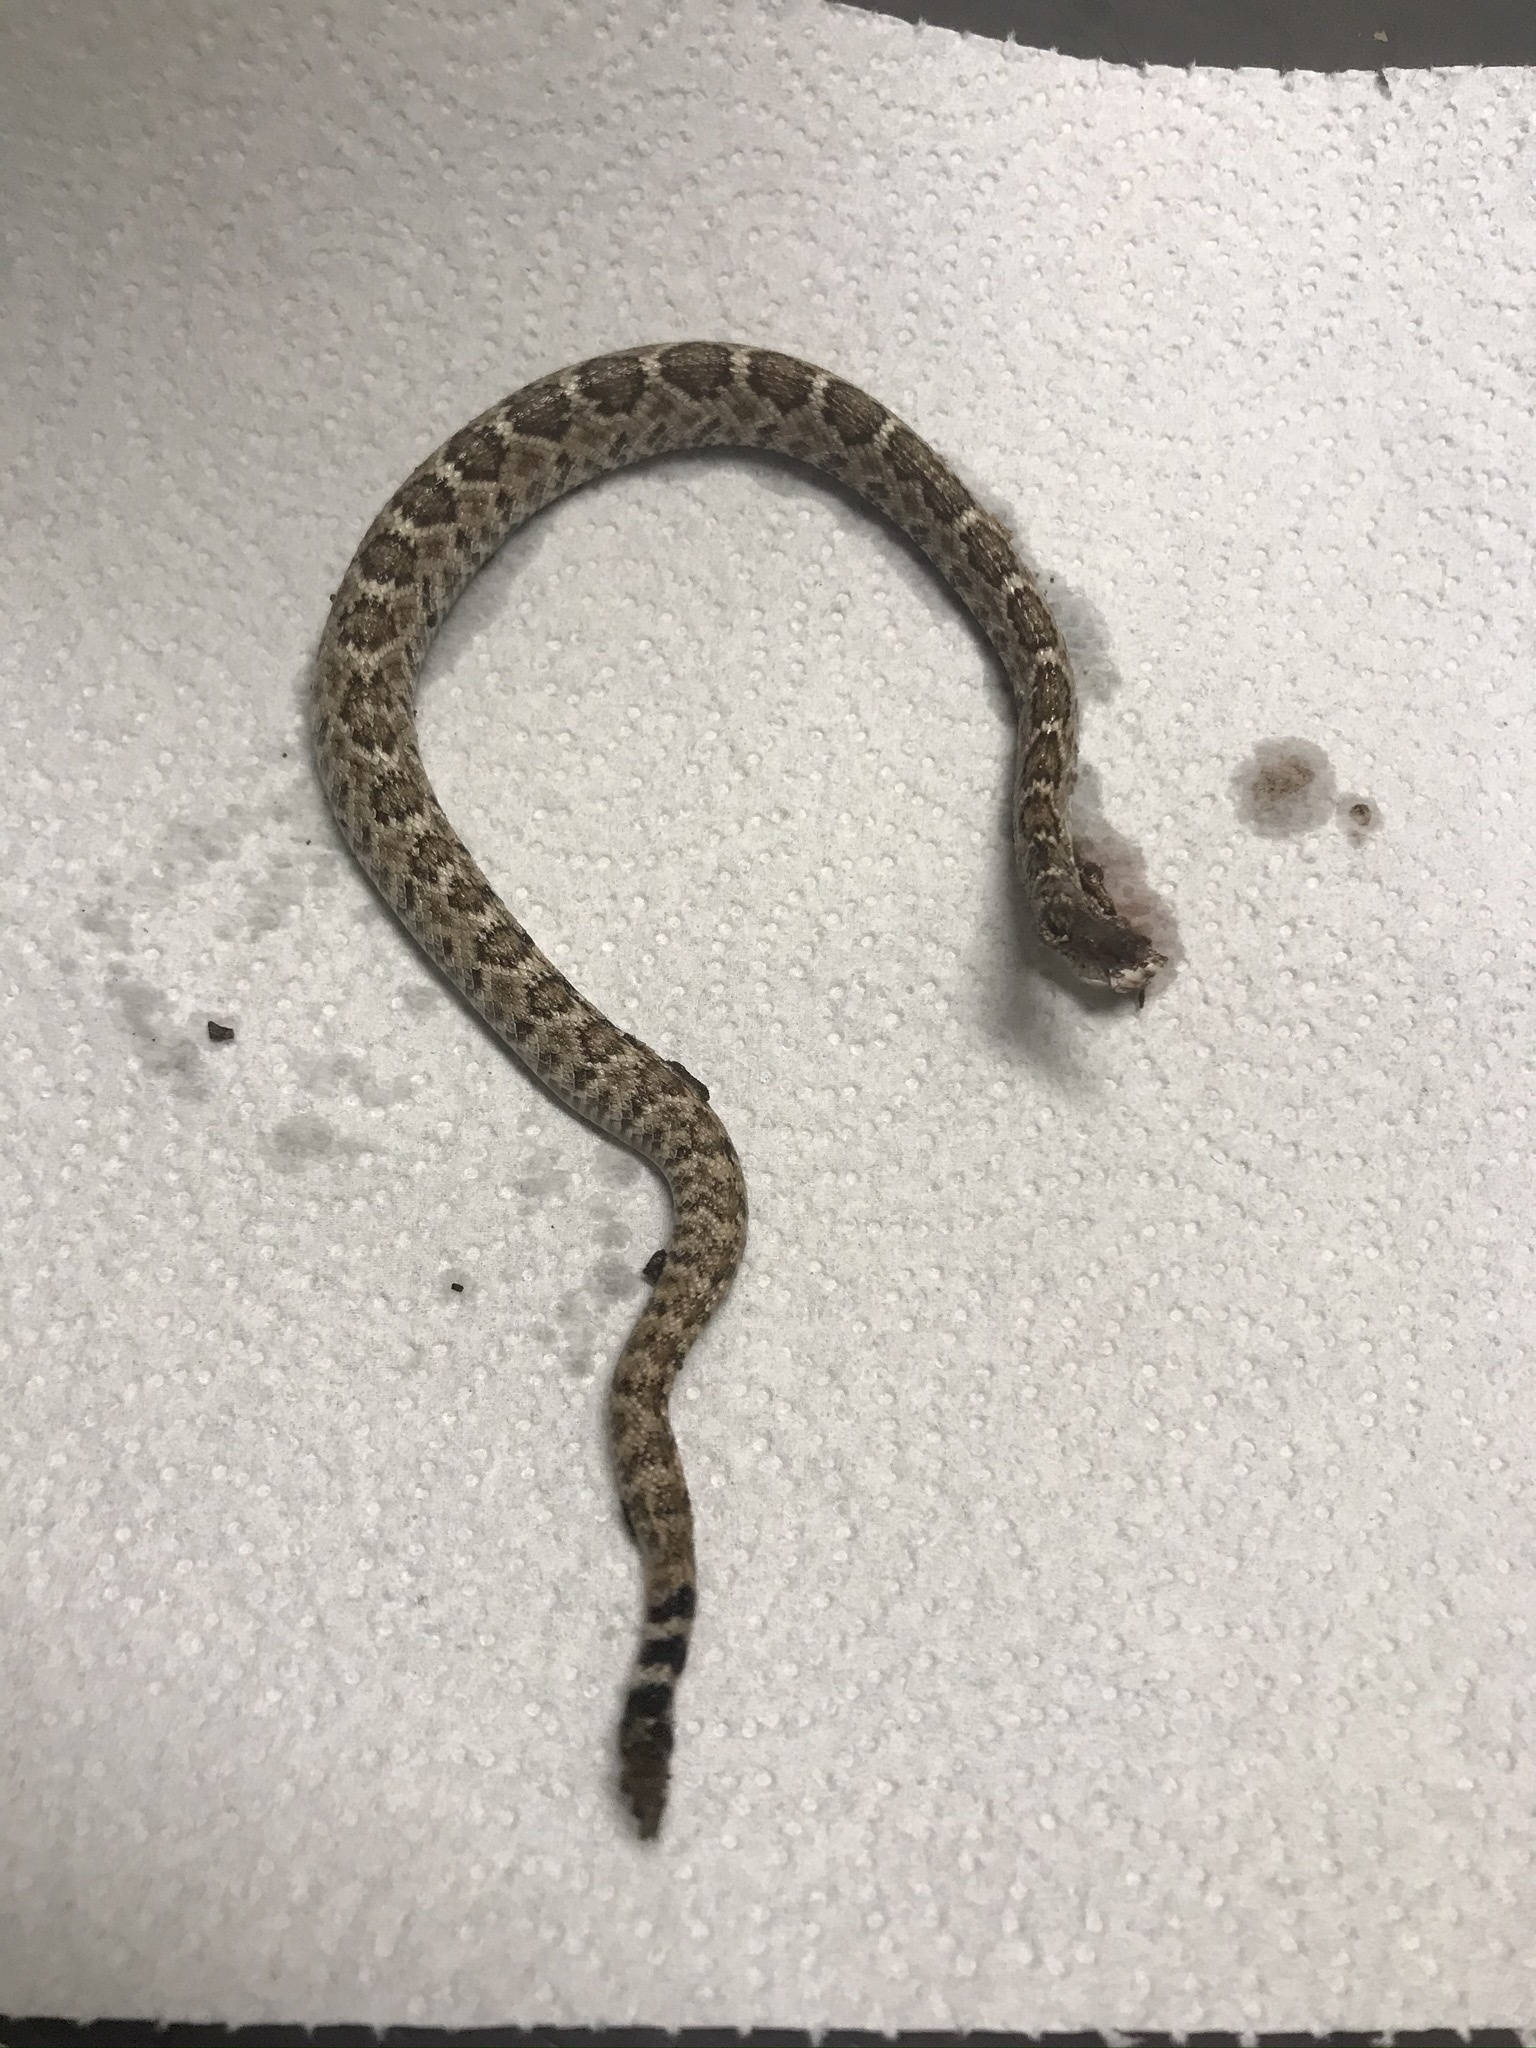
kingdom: Animalia
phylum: Chordata
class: Squamata
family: Viperidae
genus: Crotalus
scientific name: Crotalus atrox
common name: Western diamond-backed rattlesnake
